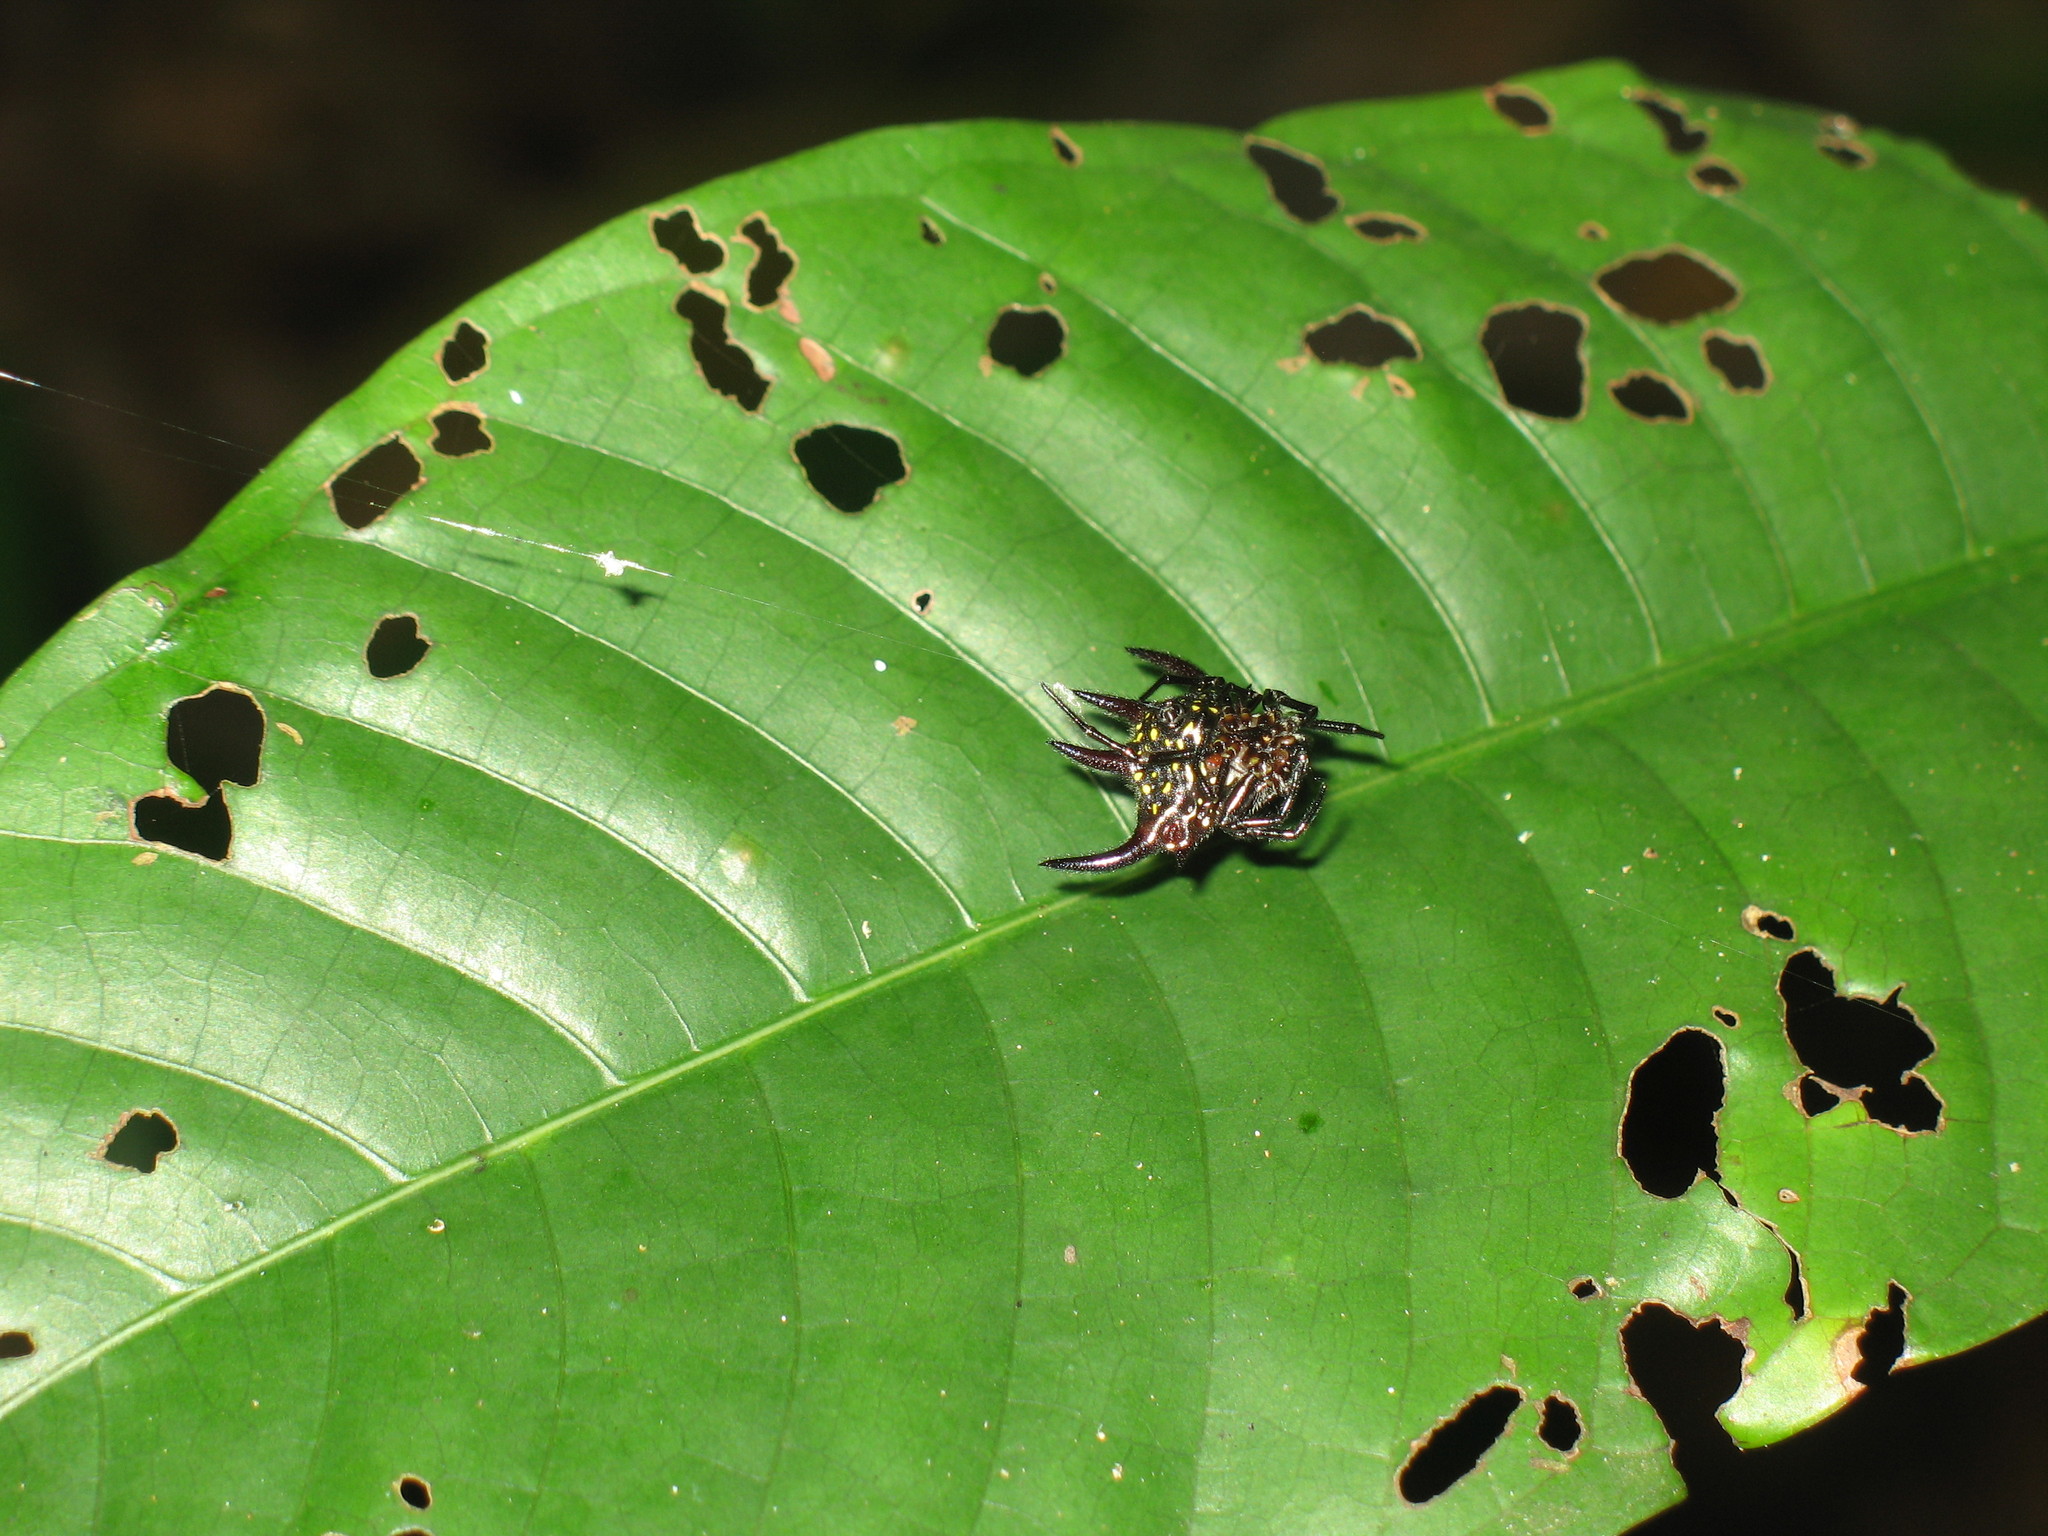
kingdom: Animalia
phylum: Arthropoda
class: Arachnida
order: Araneae
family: Araneidae
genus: Gasteracantha
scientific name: Gasteracantha curvispina
